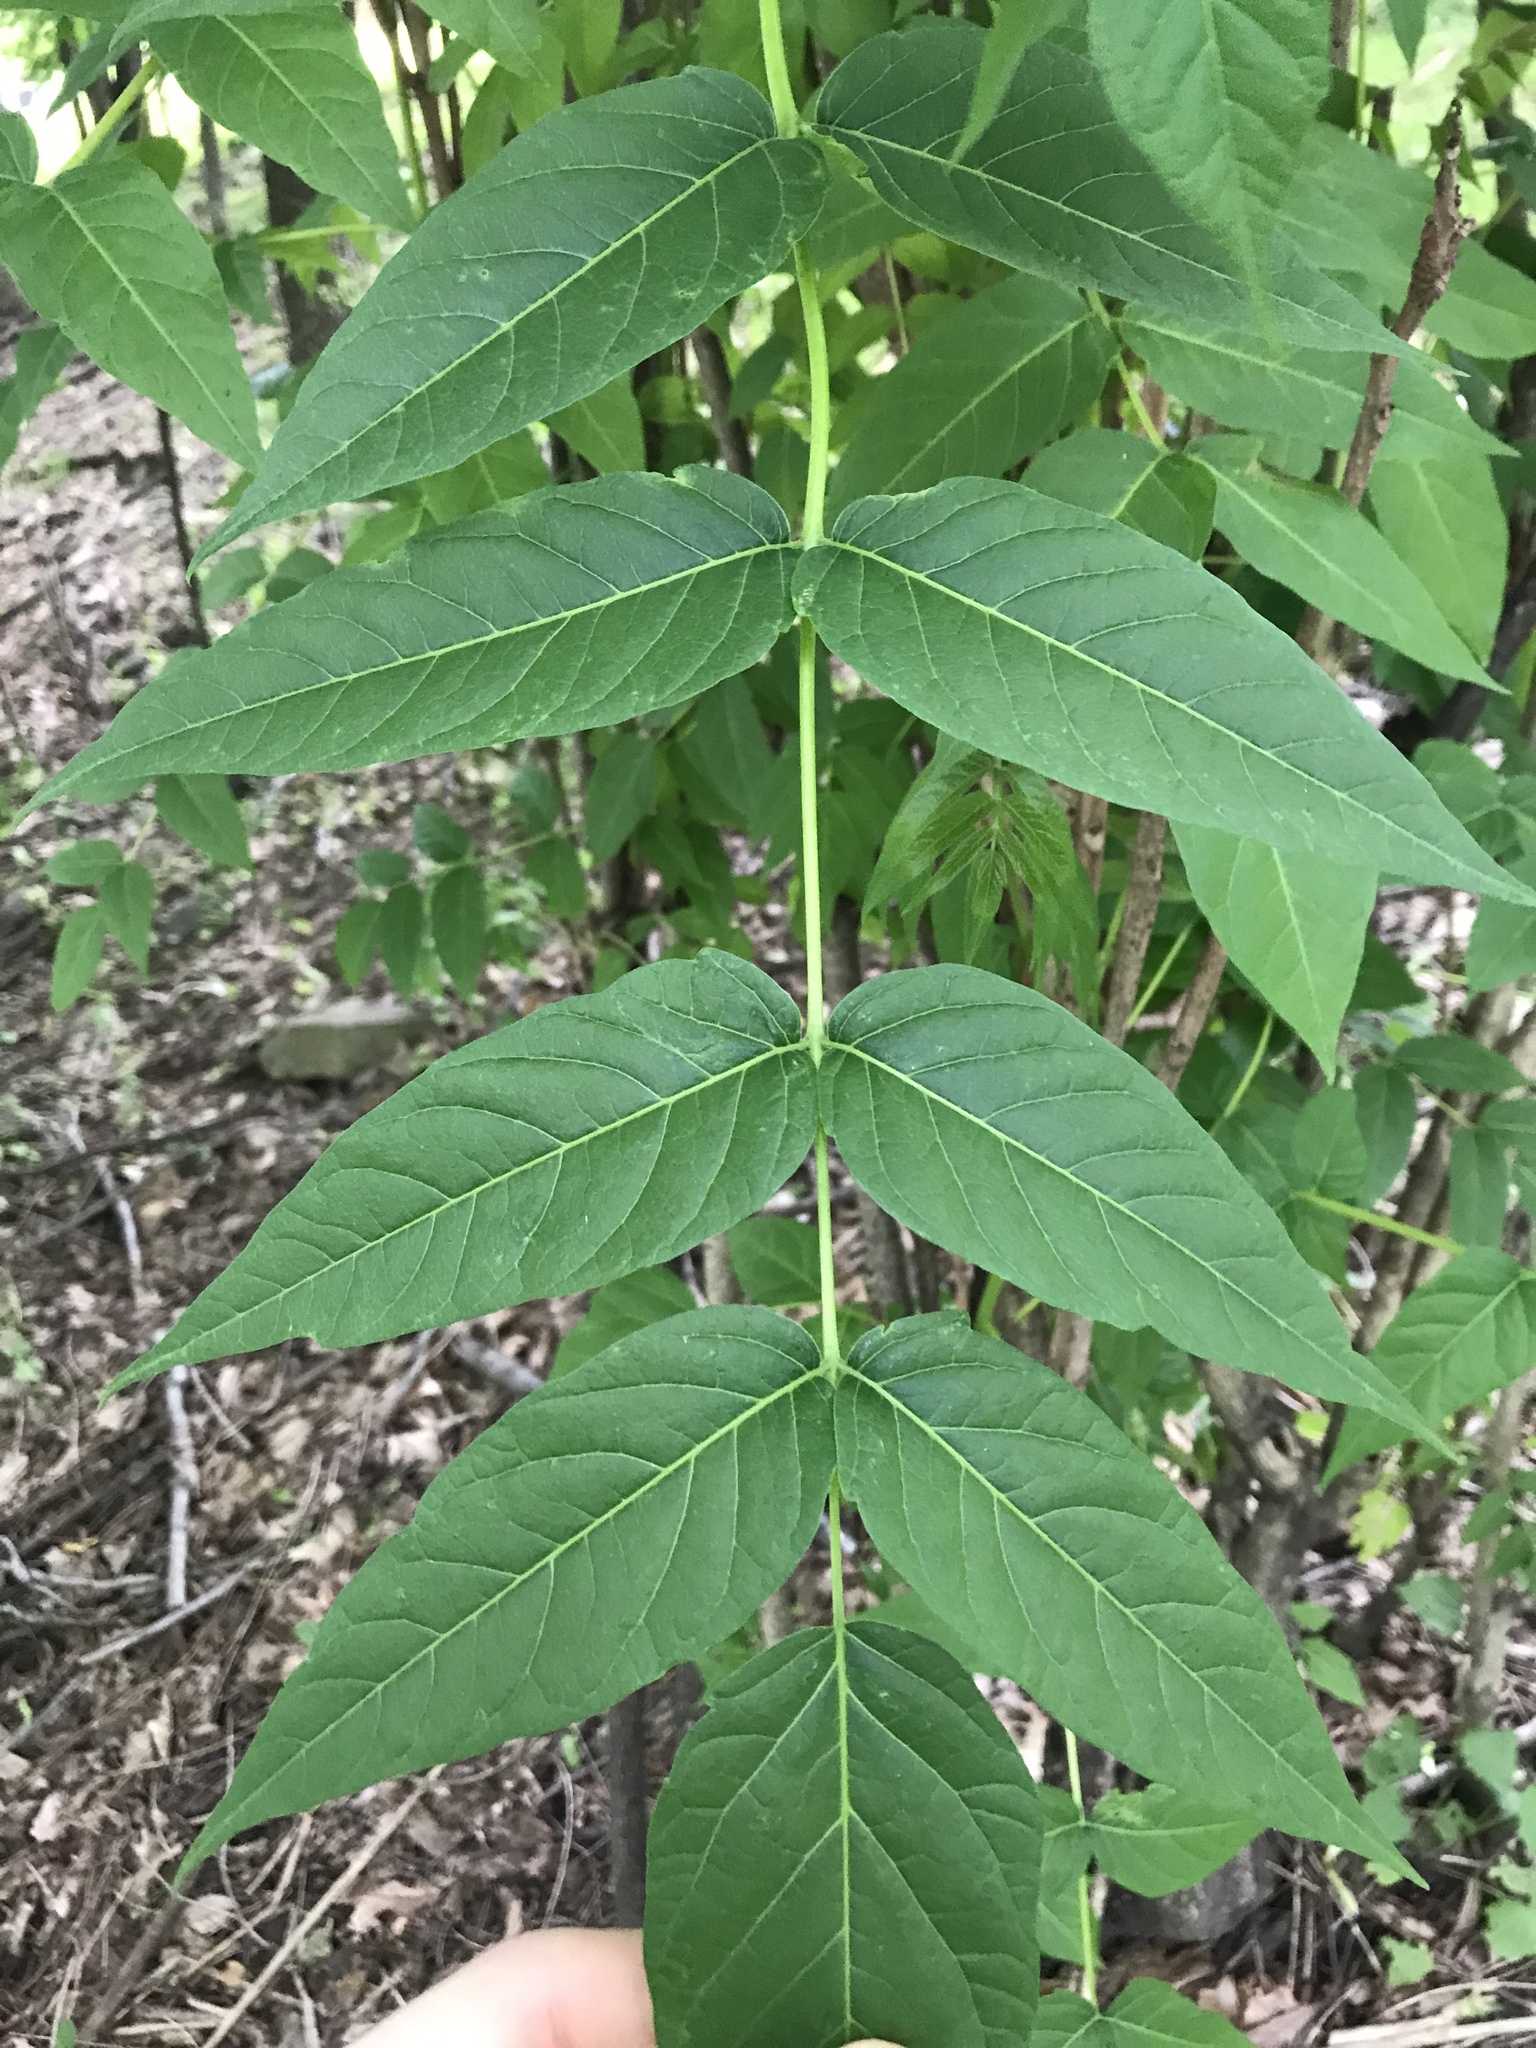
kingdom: Plantae
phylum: Tracheophyta
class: Magnoliopsida
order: Sapindales
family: Simaroubaceae
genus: Ailanthus
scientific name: Ailanthus altissima
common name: Tree-of-heaven
